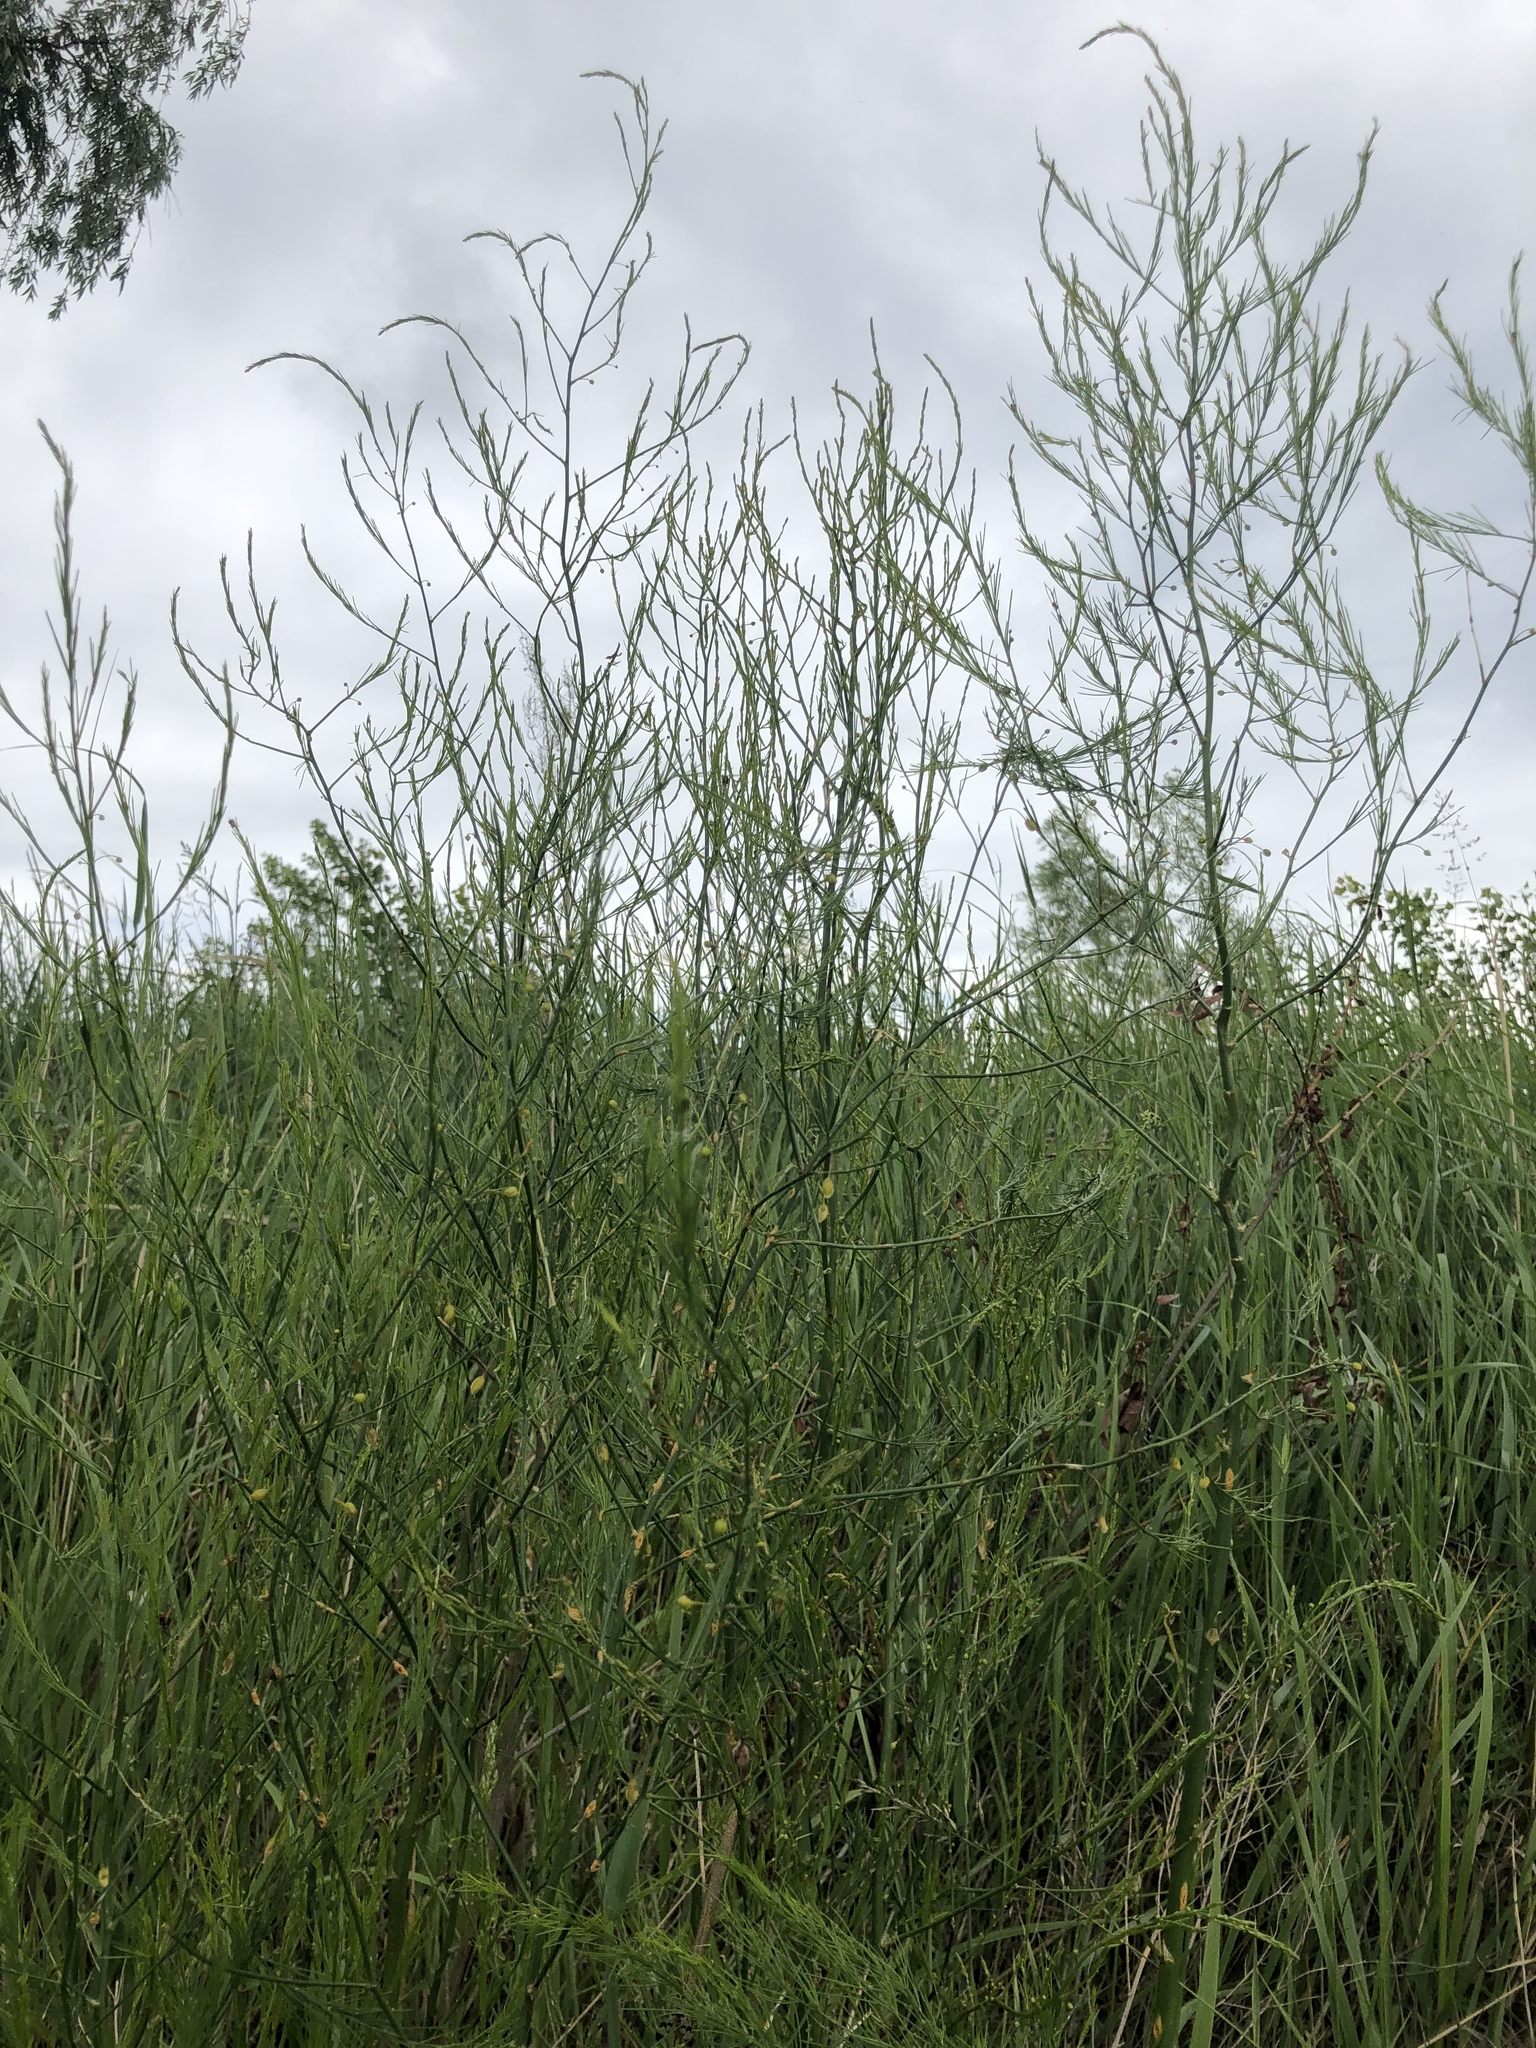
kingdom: Plantae
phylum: Tracheophyta
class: Liliopsida
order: Asparagales
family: Asparagaceae
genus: Asparagus
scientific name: Asparagus officinalis
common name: Garden asparagus
